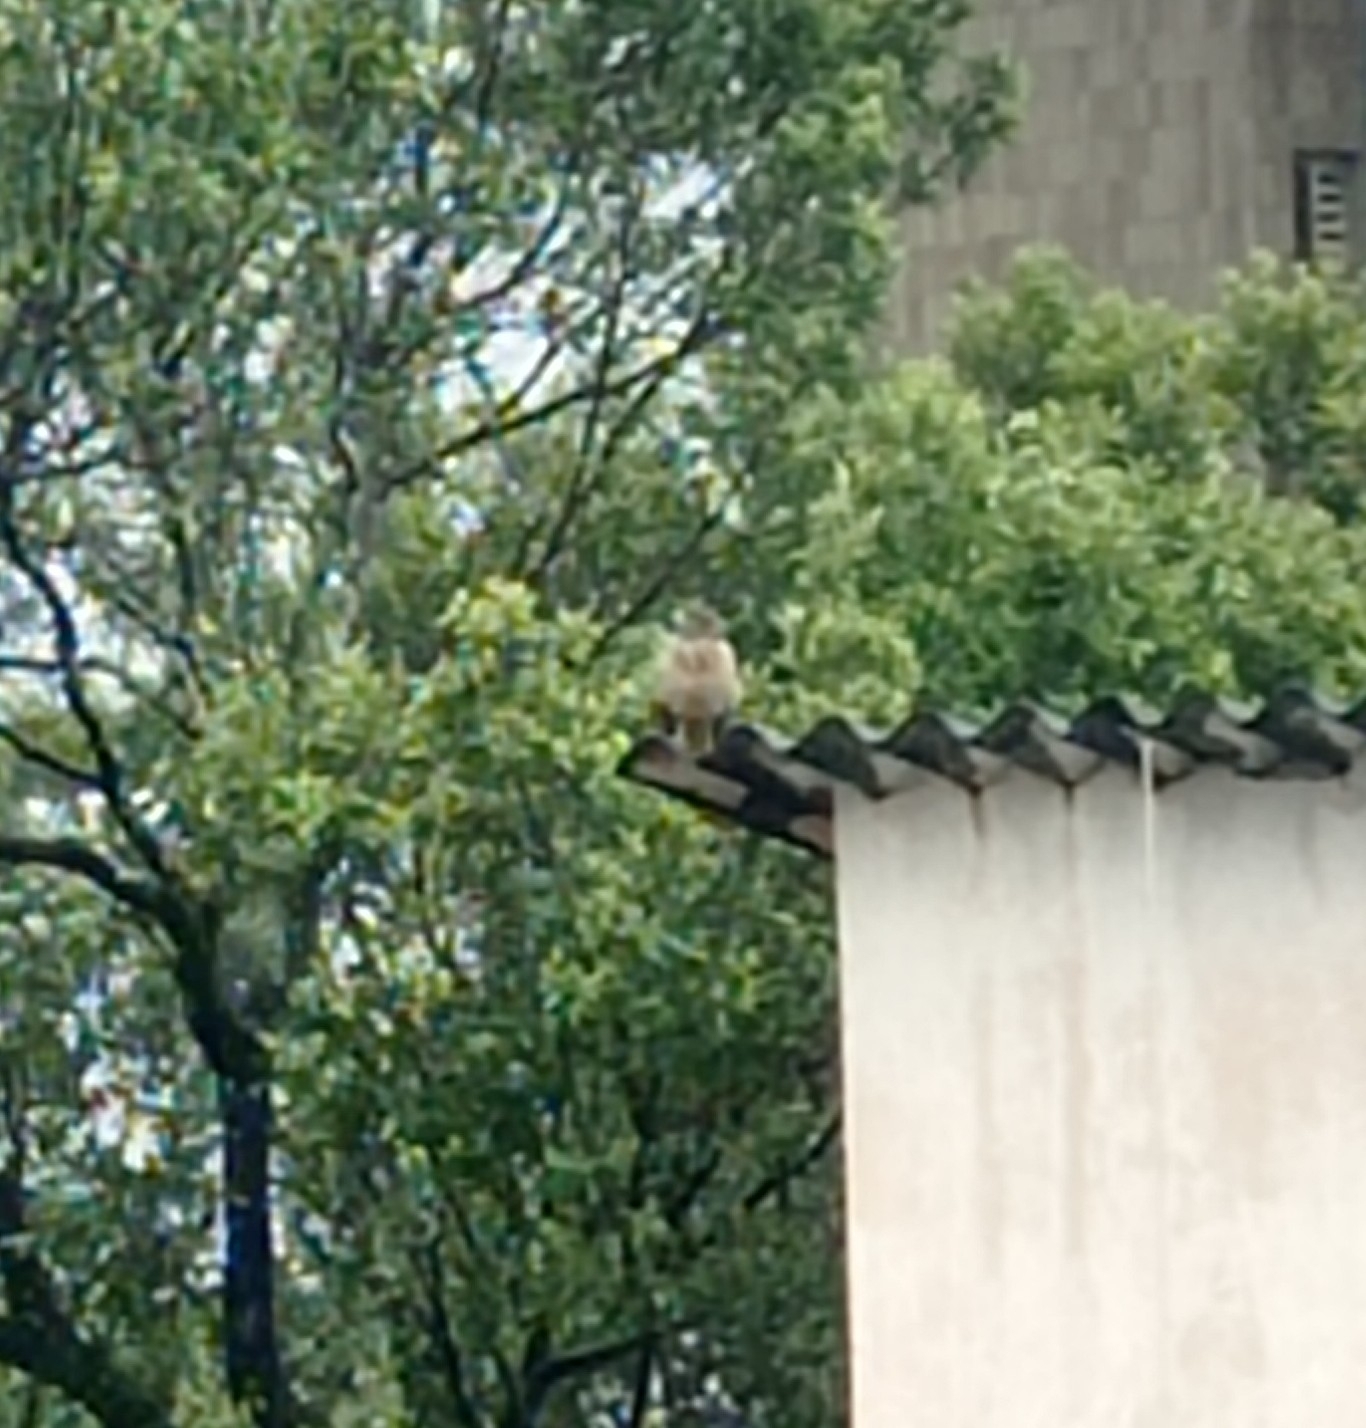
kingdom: Animalia
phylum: Chordata
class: Aves
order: Accipitriformes
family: Accipitridae
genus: Rupornis
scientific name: Rupornis magnirostris
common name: Roadside hawk
